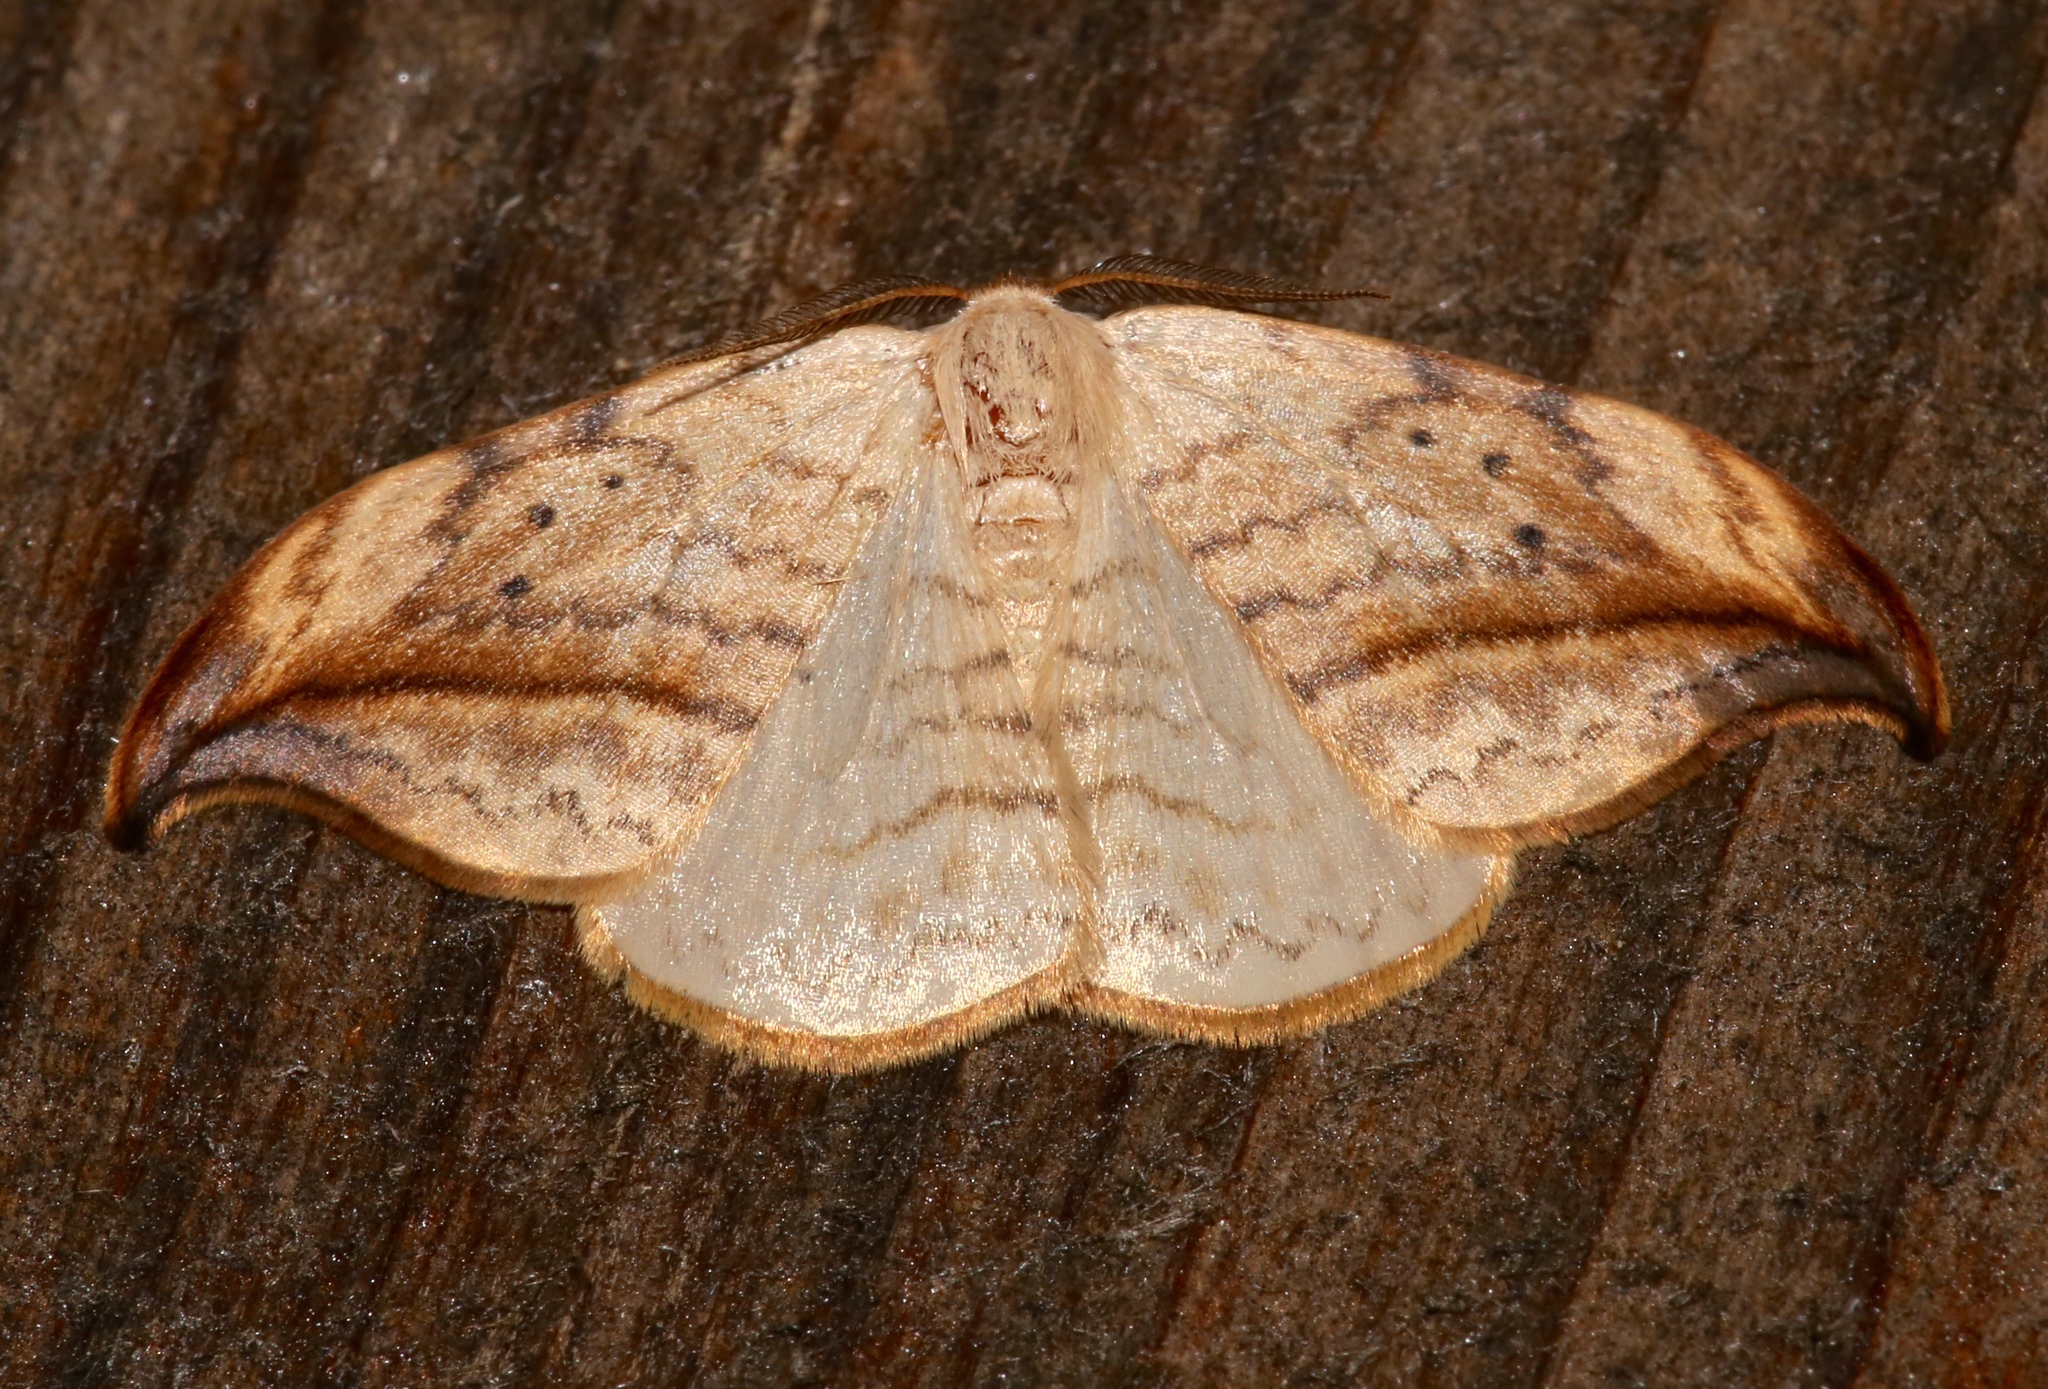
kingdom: Animalia
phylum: Arthropoda
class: Insecta
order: Lepidoptera
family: Drepanidae
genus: Drepana
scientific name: Drepana arcuata
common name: Arched hooktip moth
